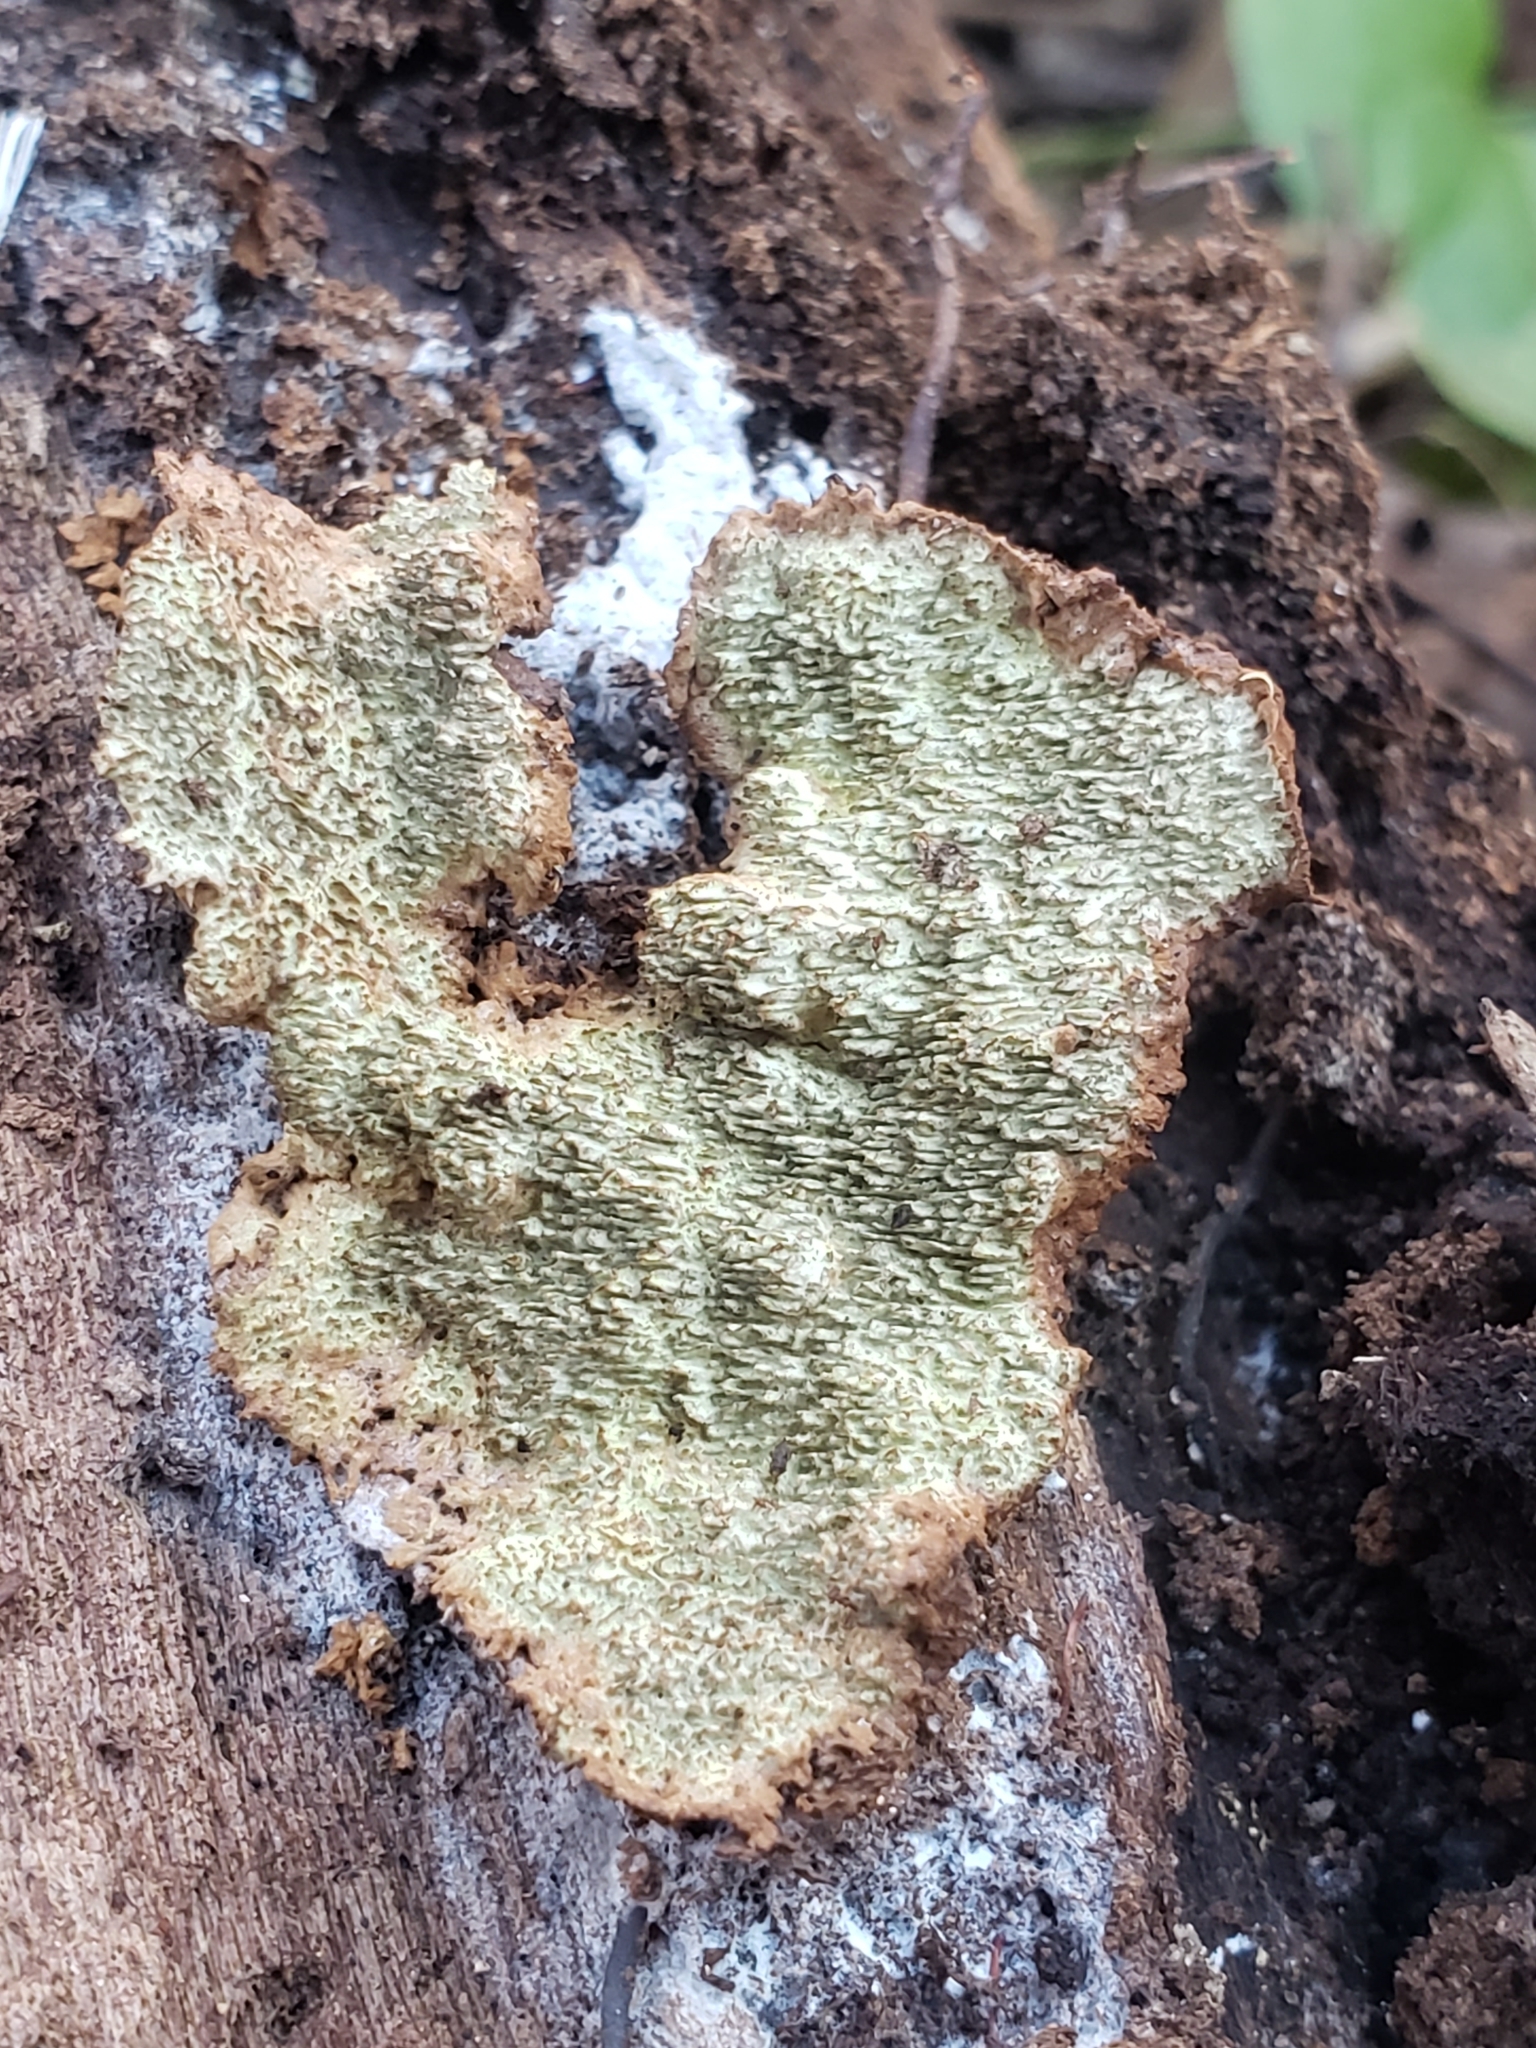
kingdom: Fungi
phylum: Basidiomycota
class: Agaricomycetes
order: Polyporales
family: Polyporaceae
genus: Dentocorticium
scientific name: Dentocorticium portoricense
